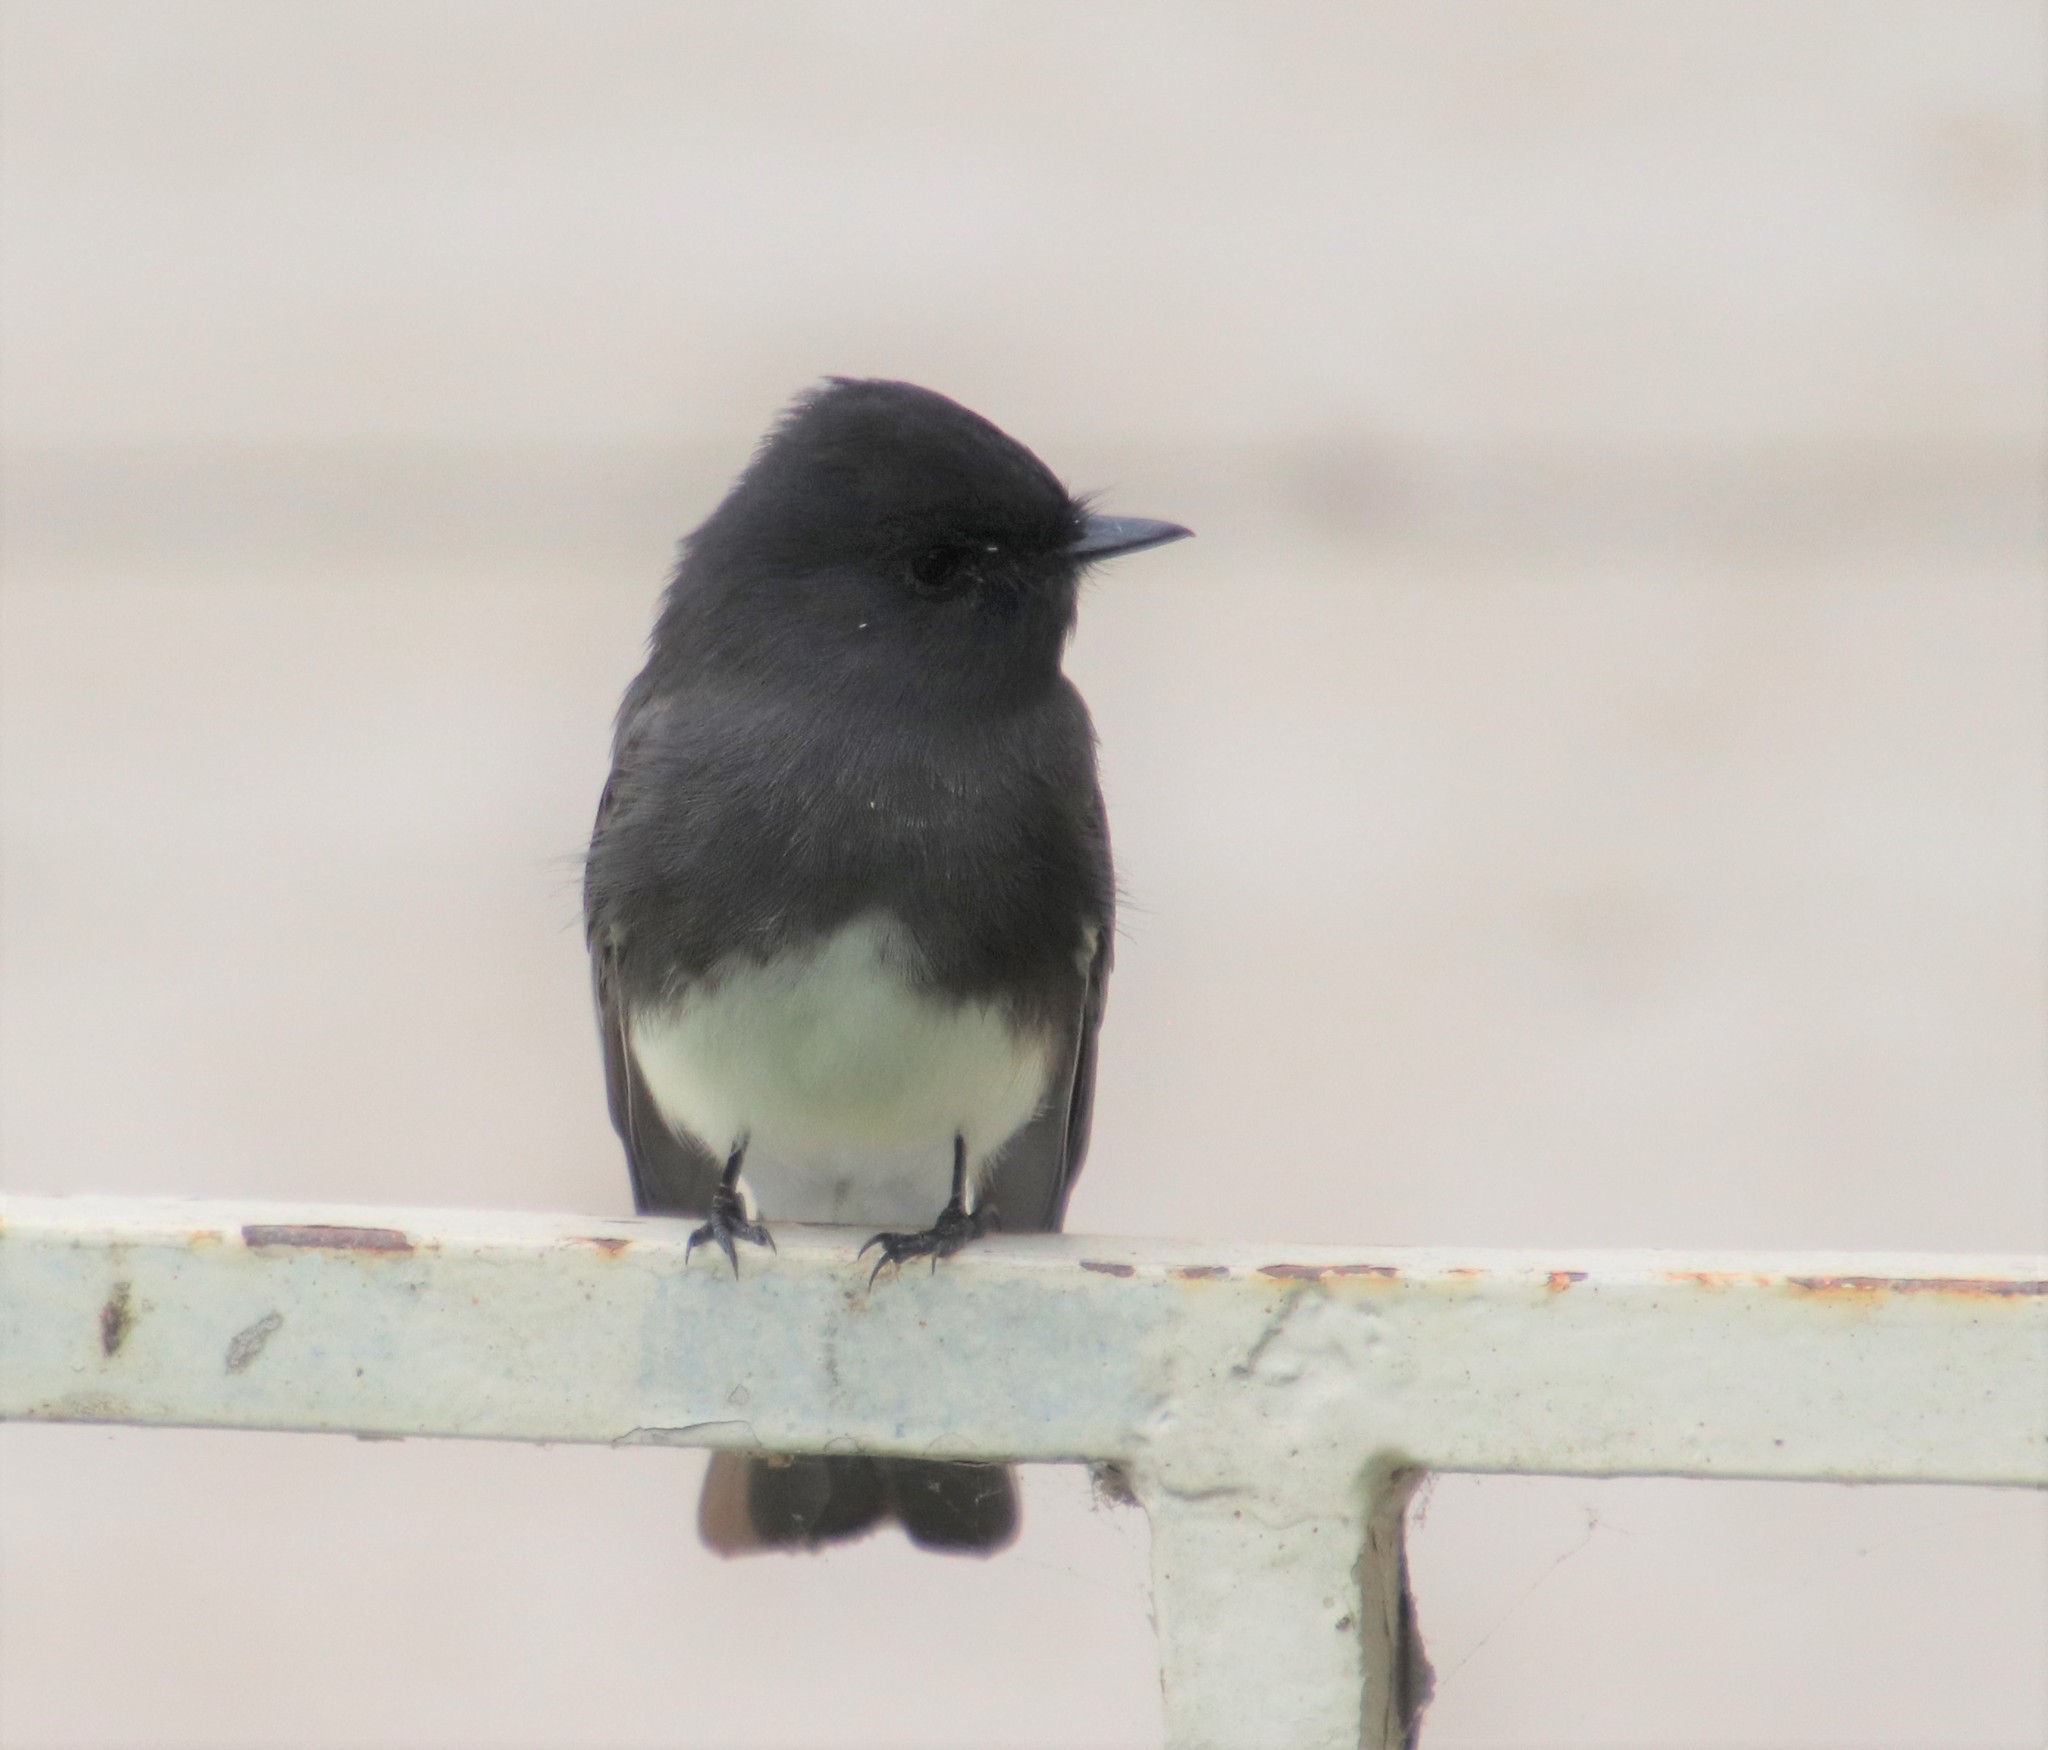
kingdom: Animalia
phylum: Chordata
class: Aves
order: Passeriformes
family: Tyrannidae
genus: Sayornis
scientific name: Sayornis nigricans
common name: Black phoebe
